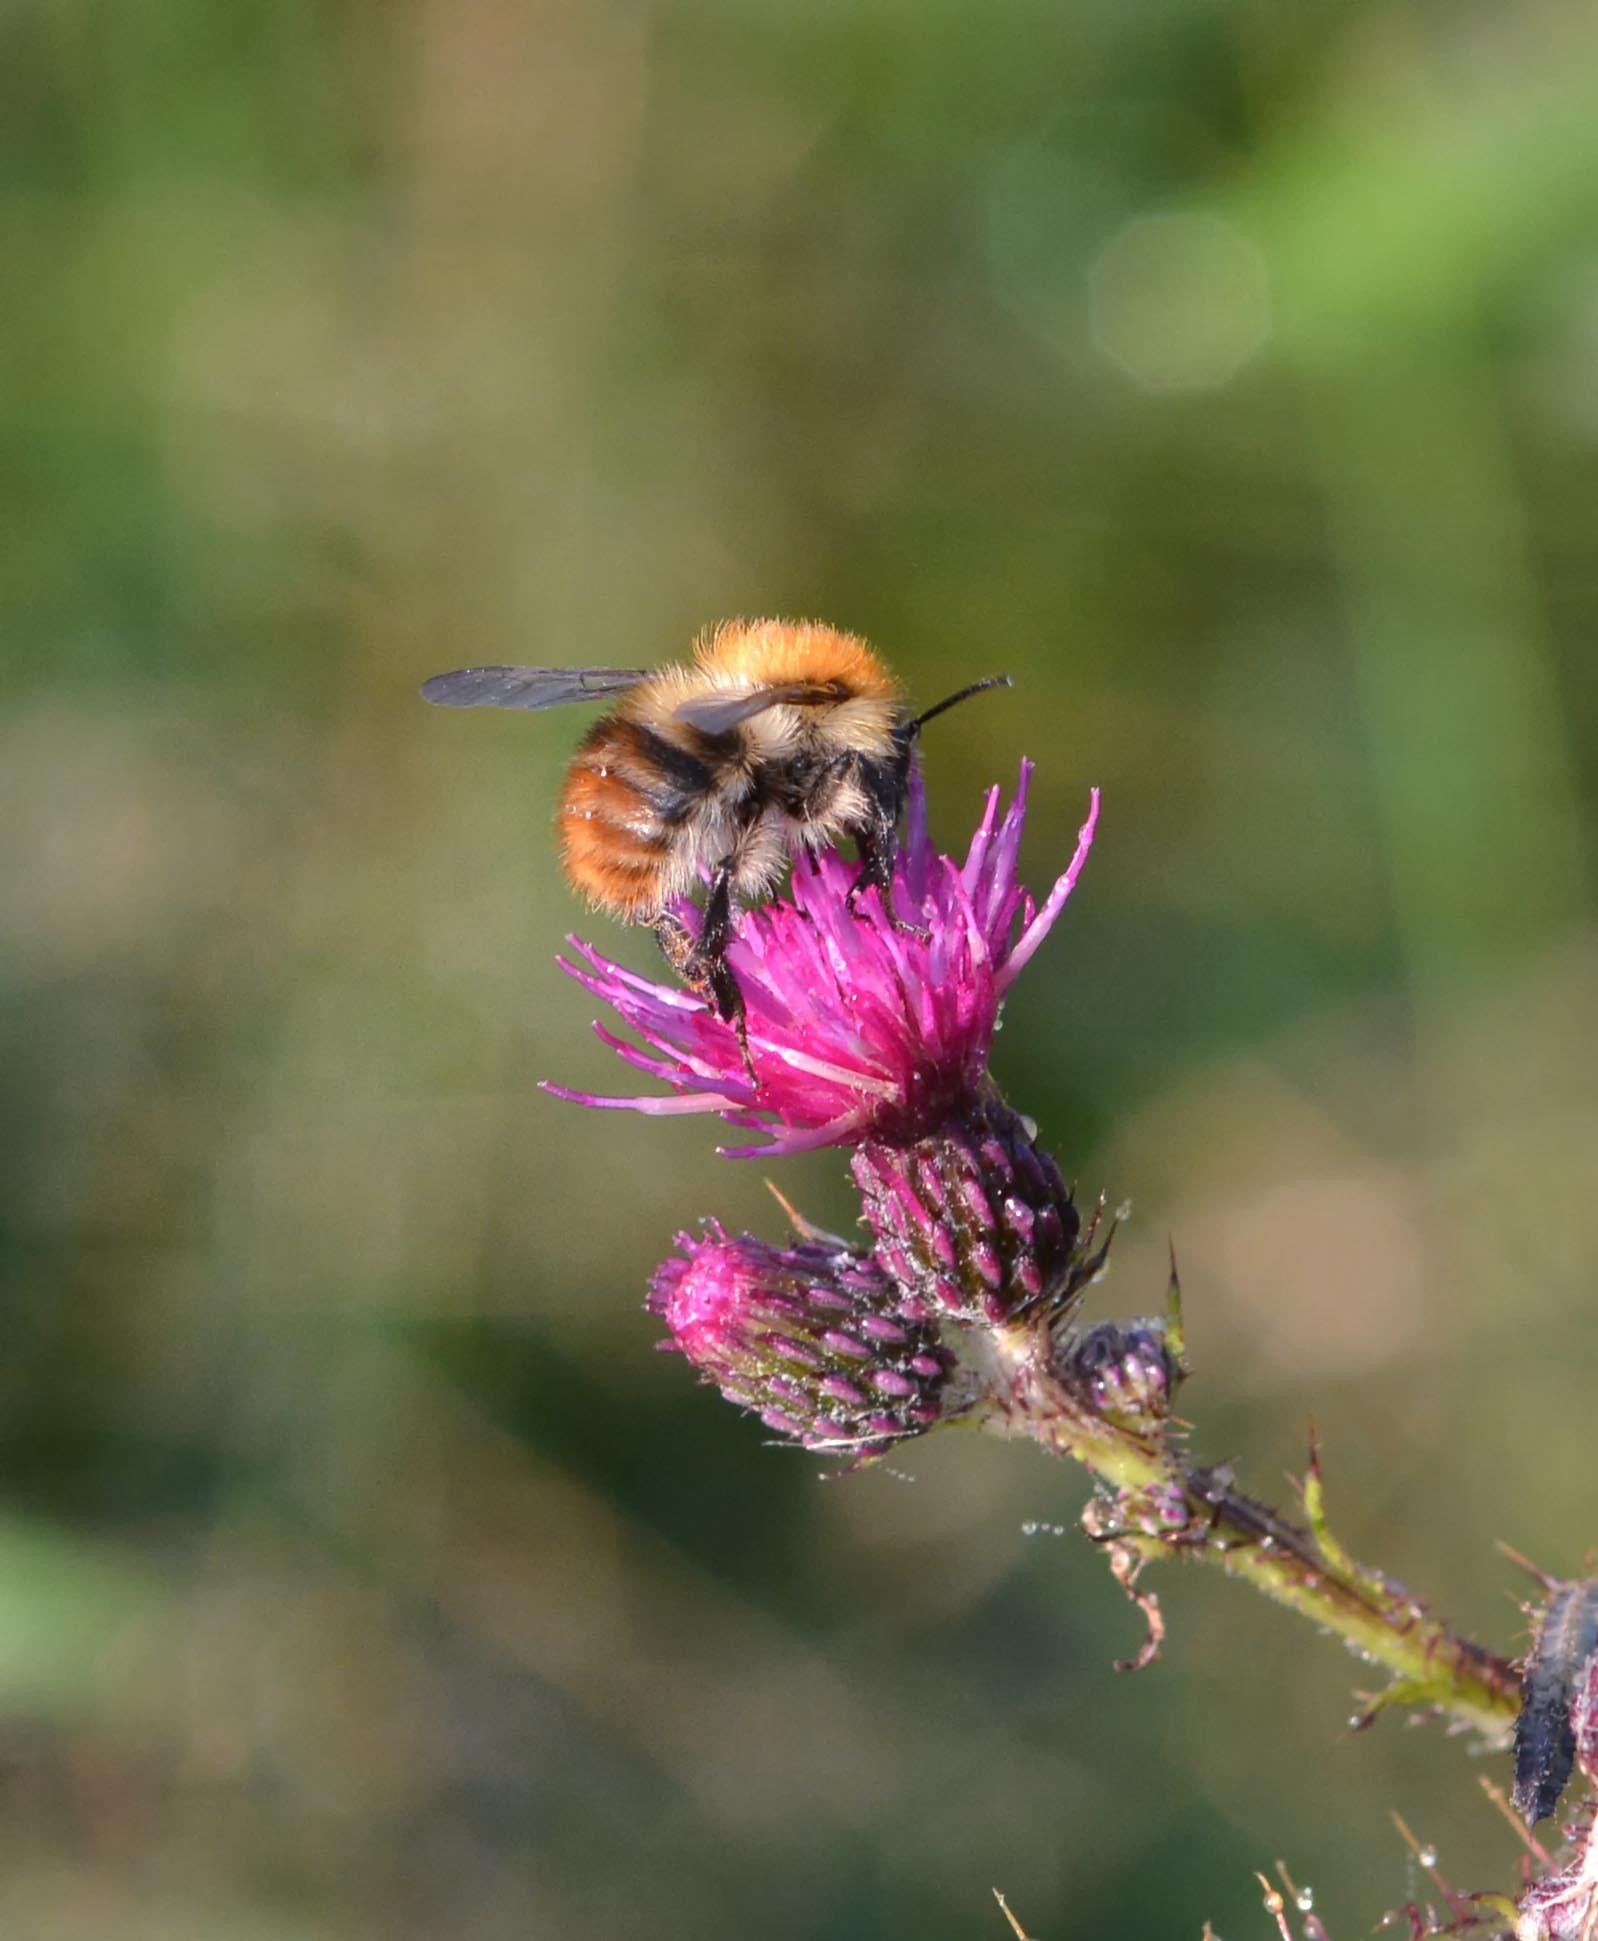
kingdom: Animalia
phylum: Arthropoda
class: Insecta
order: Hymenoptera
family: Apidae
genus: Bombus
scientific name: Bombus pascuorum
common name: Common carder bee
